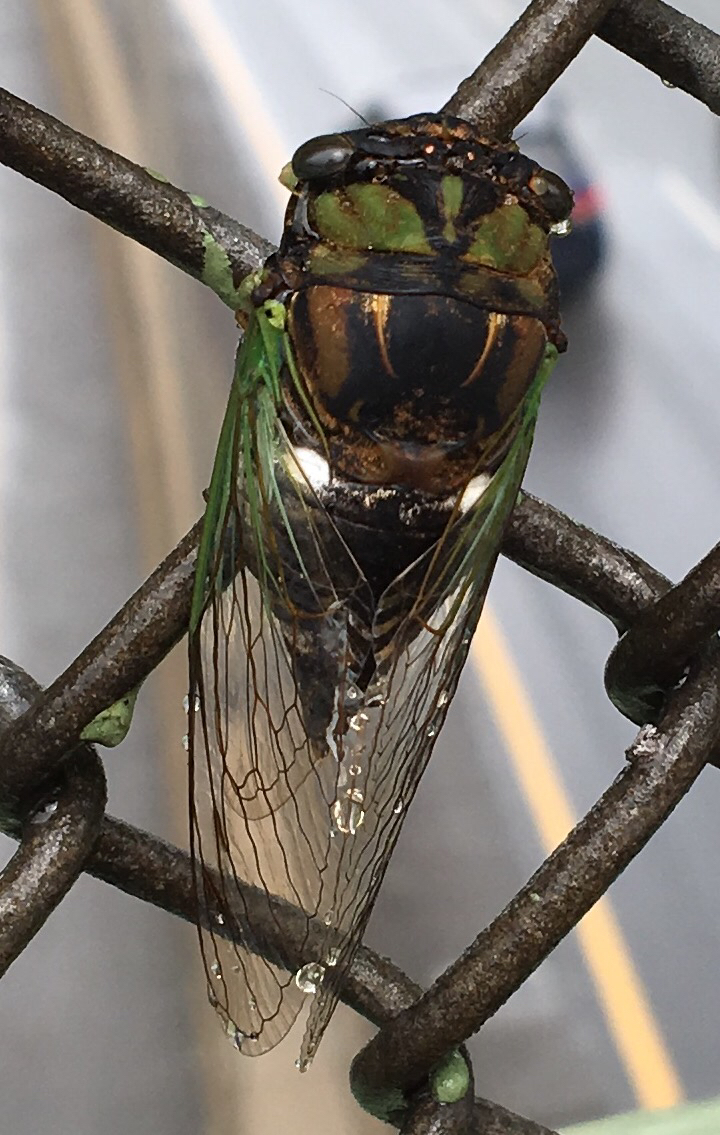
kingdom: Animalia
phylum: Arthropoda
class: Insecta
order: Hemiptera
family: Cicadidae
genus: Neotibicen
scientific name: Neotibicen tibicen
